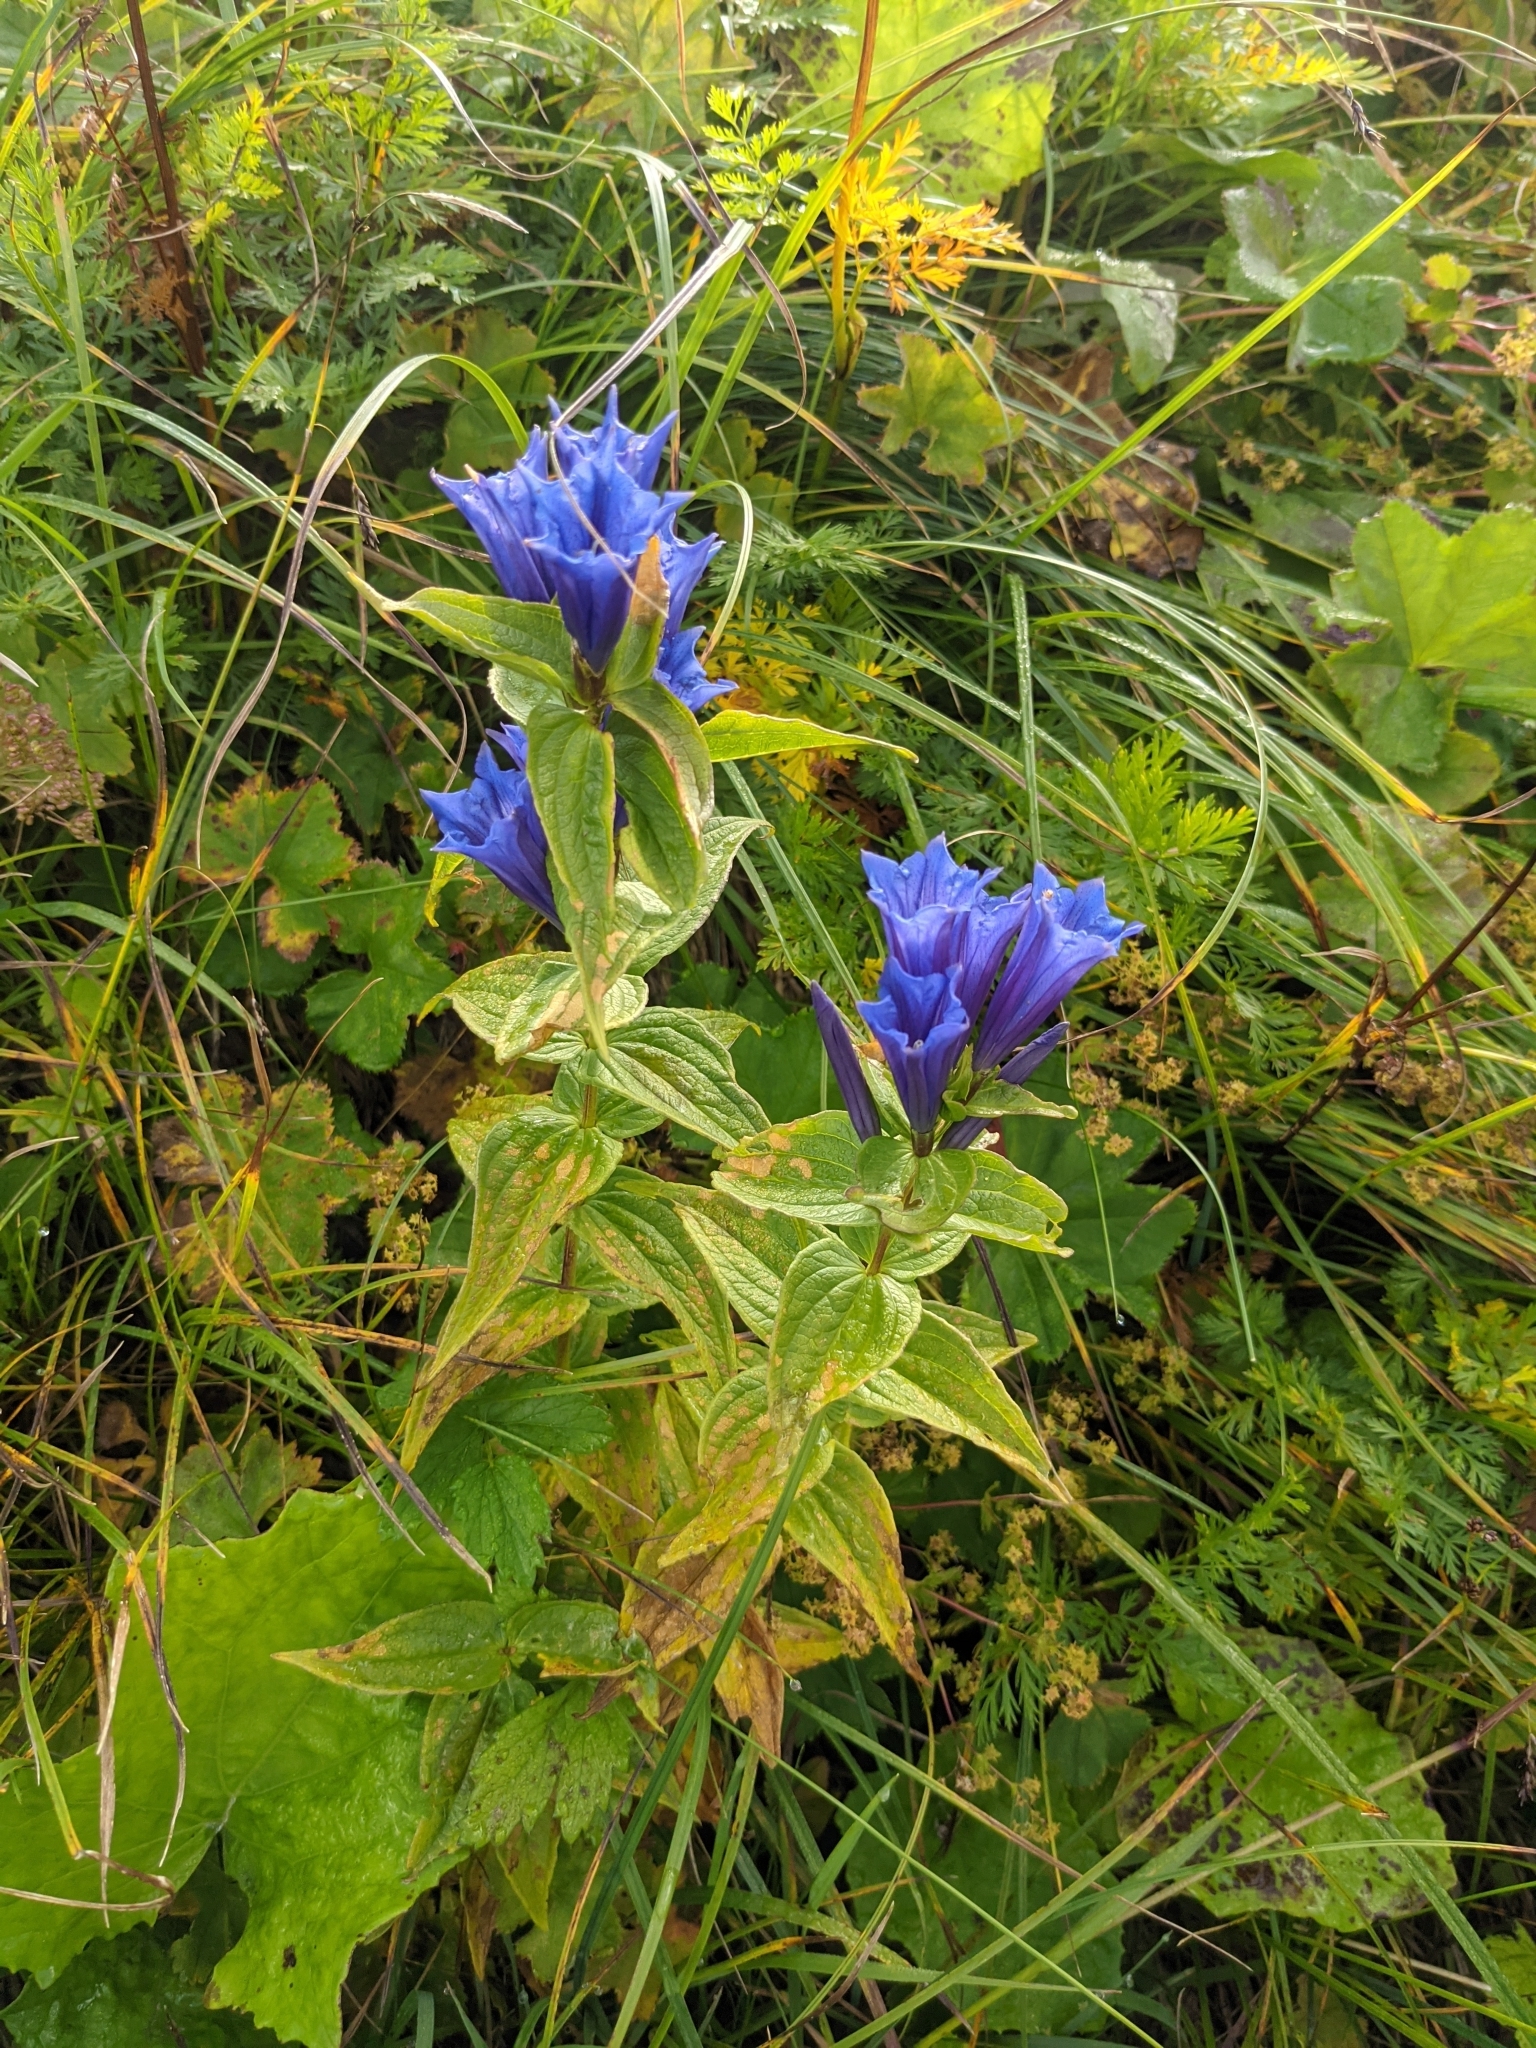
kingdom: Plantae
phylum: Tracheophyta
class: Magnoliopsida
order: Gentianales
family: Gentianaceae
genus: Gentiana
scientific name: Gentiana asclepiadea
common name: Willow gentian
